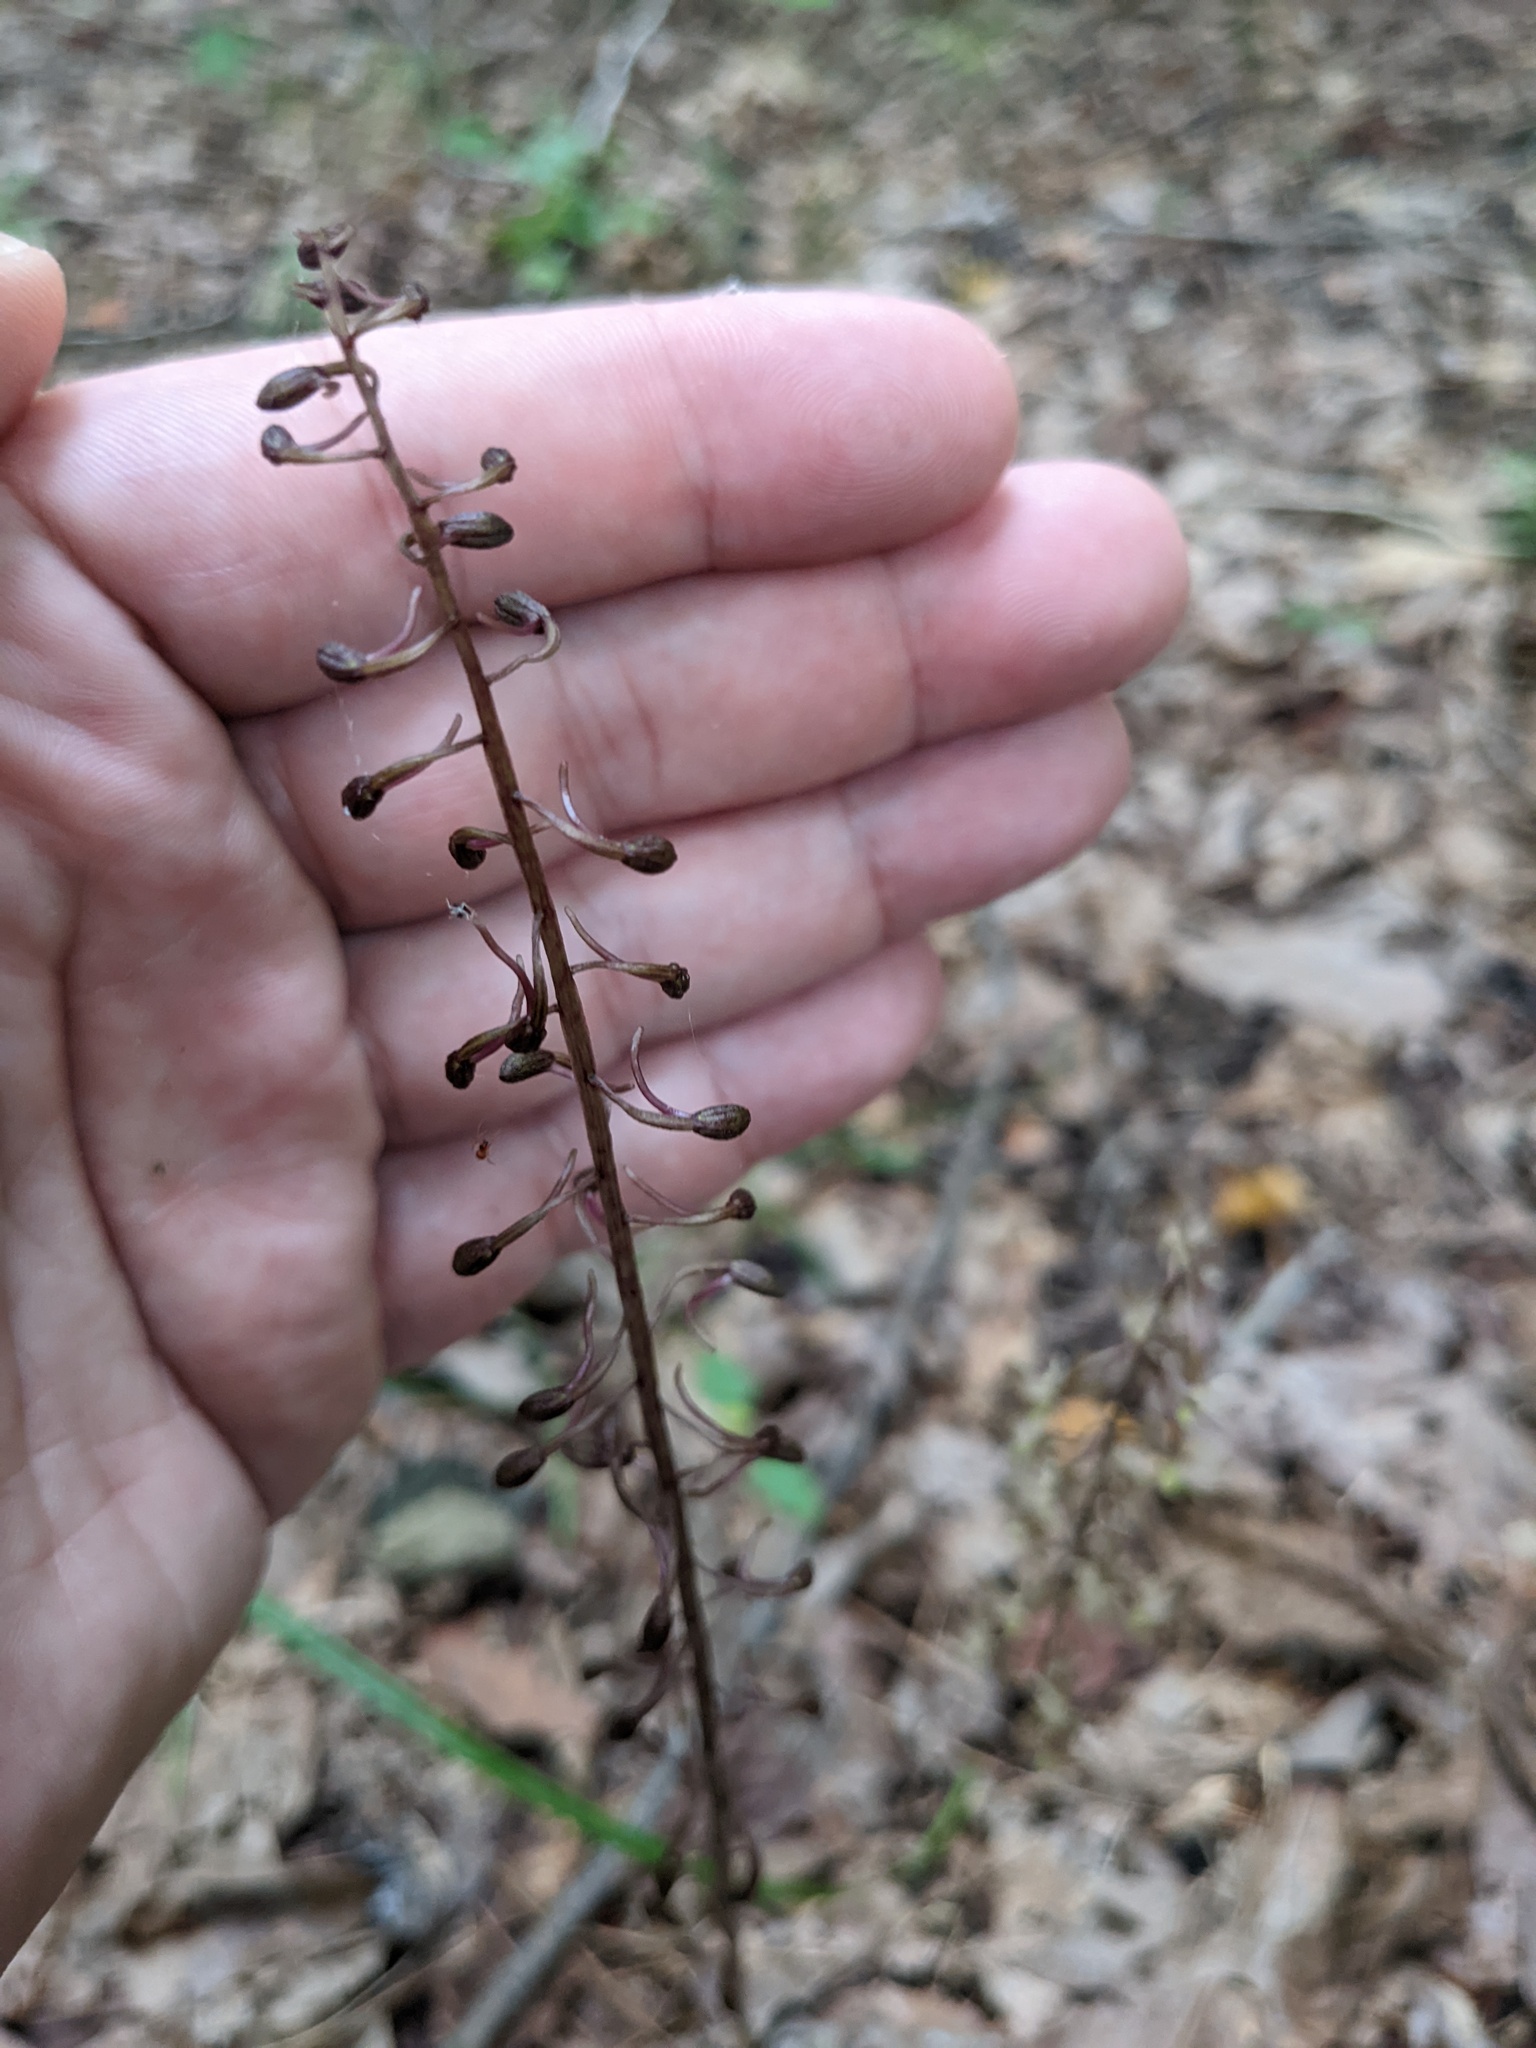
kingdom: Plantae
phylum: Tracheophyta
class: Liliopsida
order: Asparagales
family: Orchidaceae
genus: Tipularia
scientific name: Tipularia discolor
